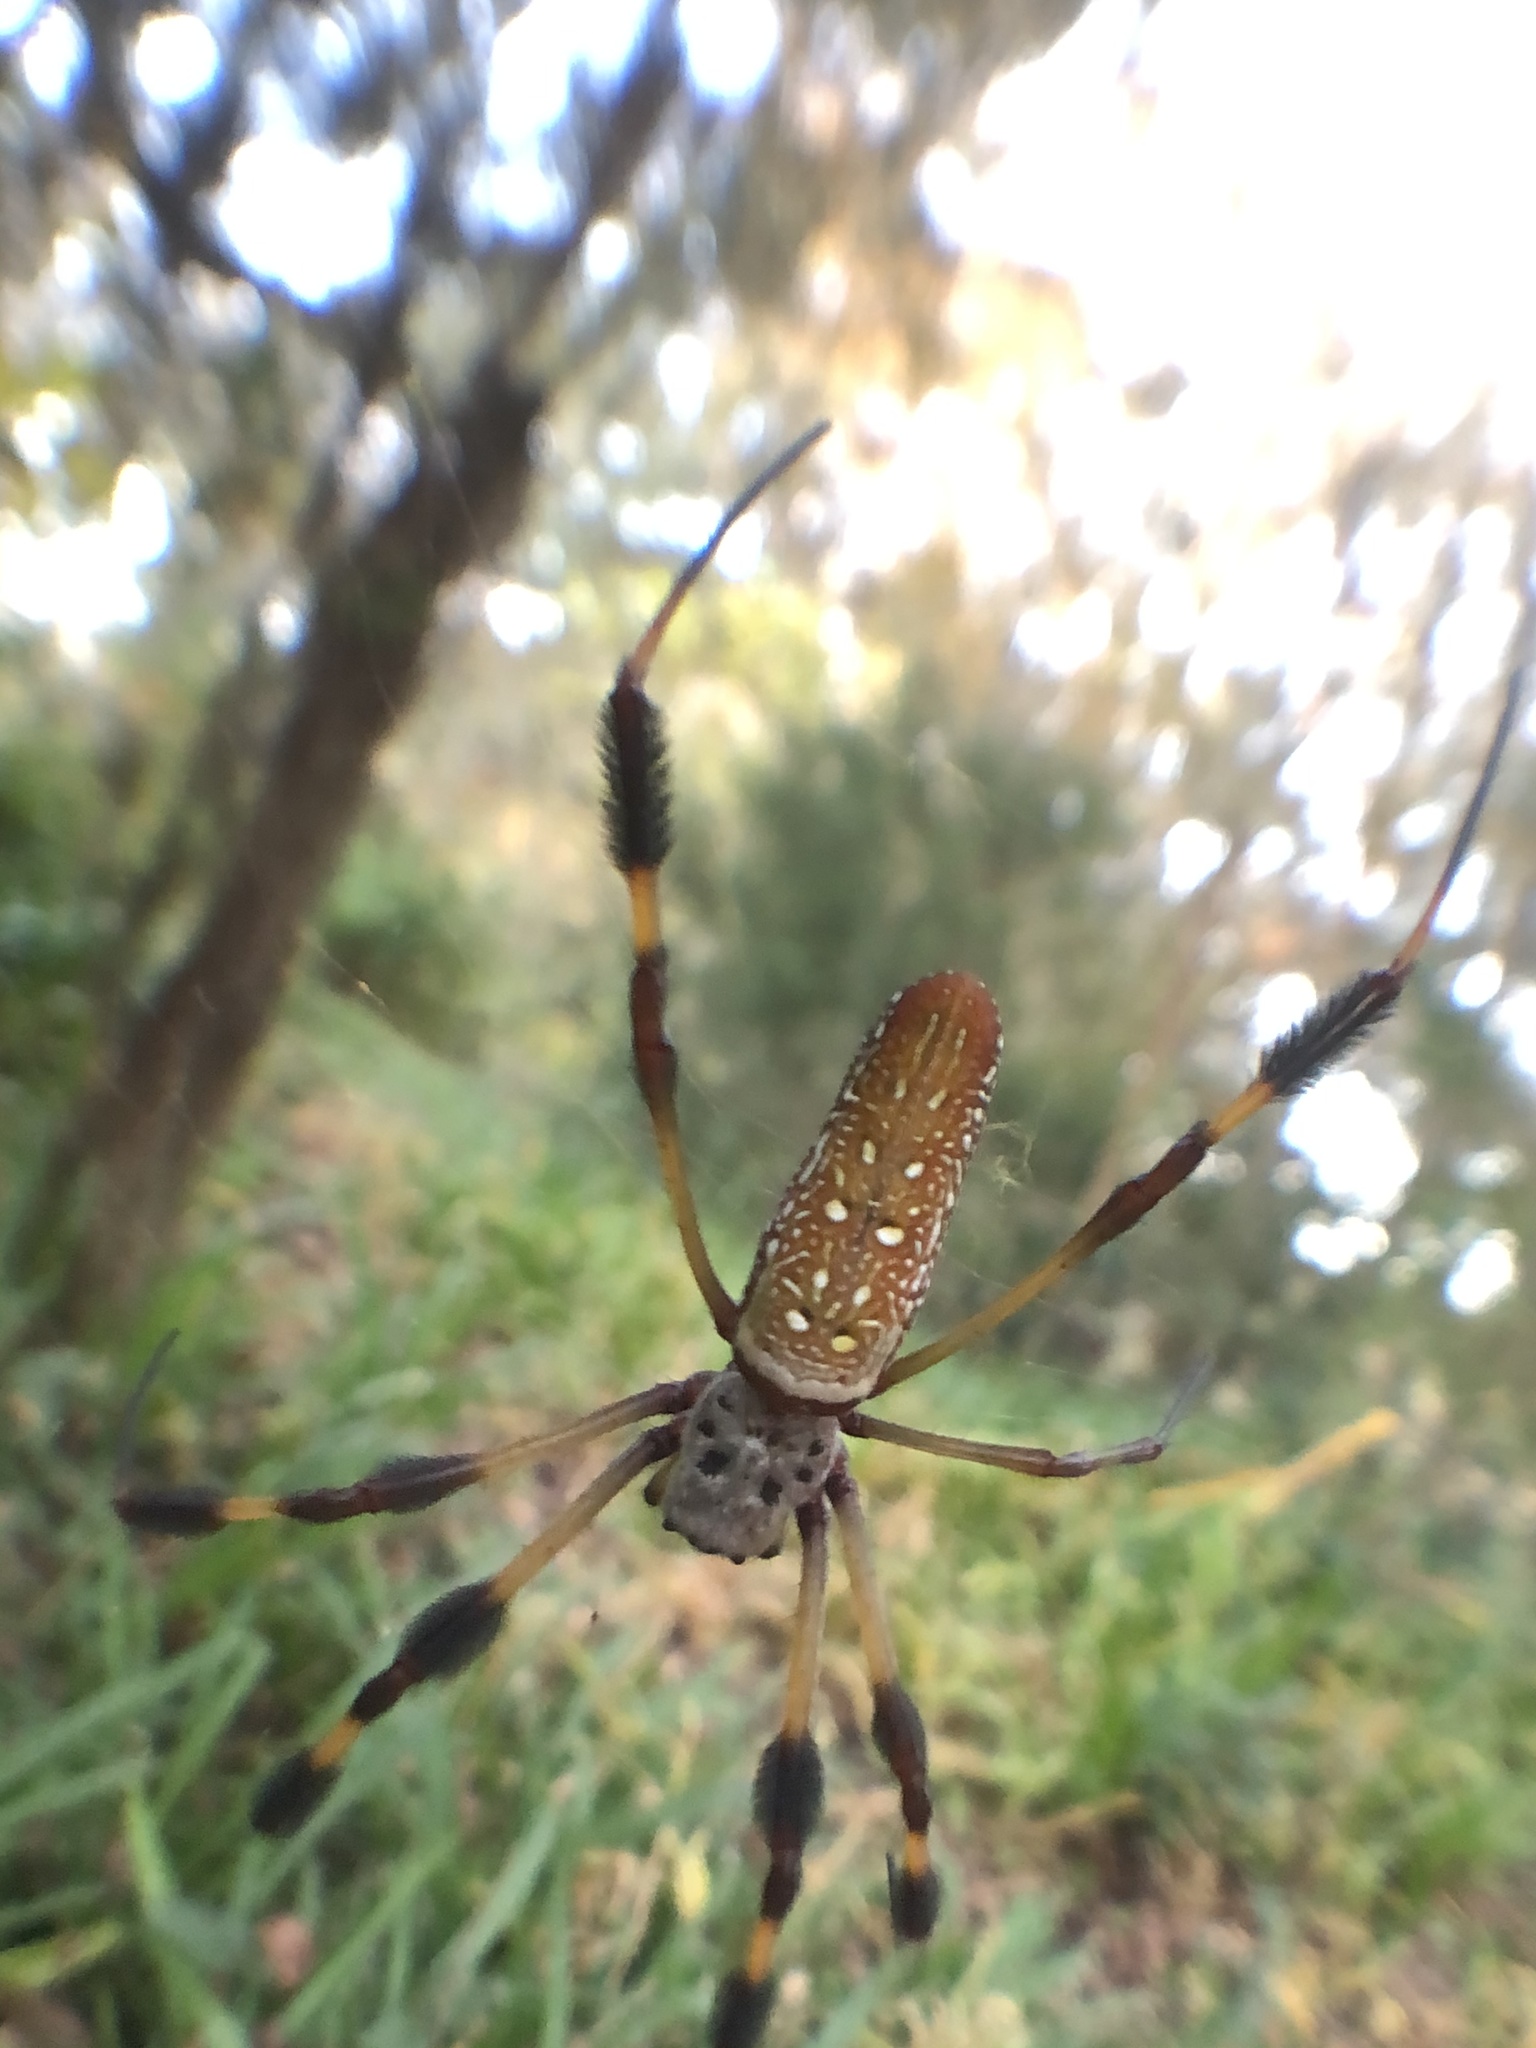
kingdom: Animalia
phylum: Arthropoda
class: Arachnida
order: Araneae
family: Araneidae
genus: Trichonephila
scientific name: Trichonephila clavipes
